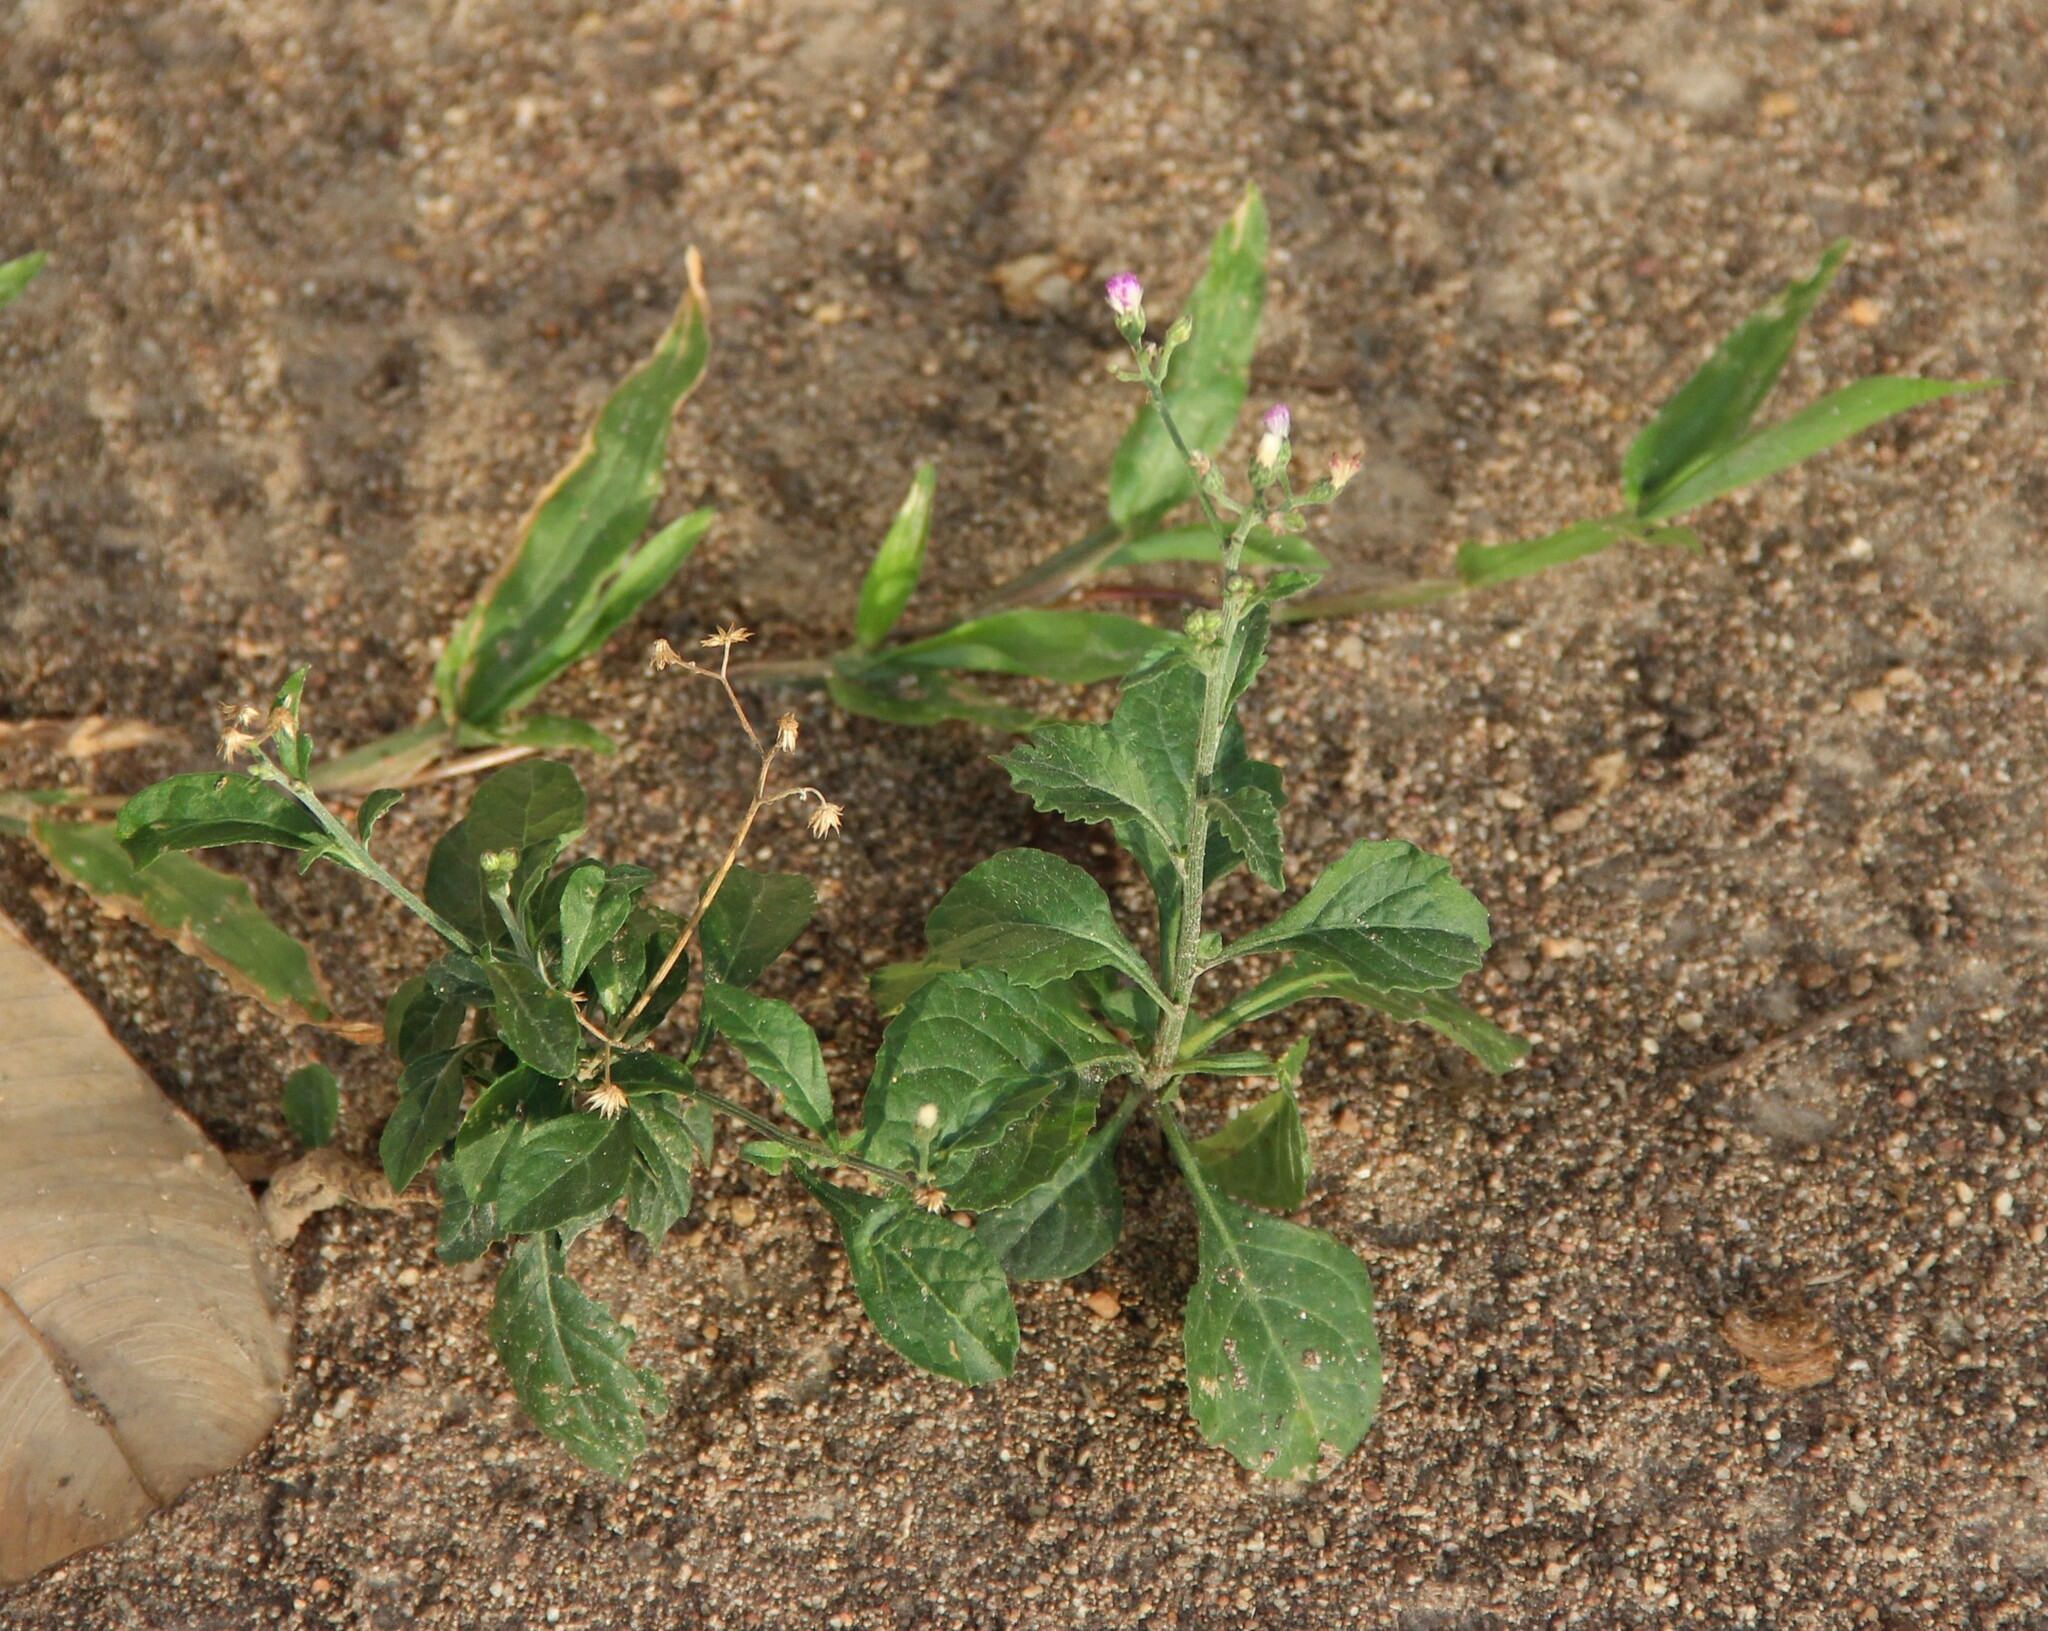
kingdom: Plantae
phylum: Tracheophyta
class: Magnoliopsida
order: Asterales
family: Asteraceae
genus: Cyanthillium
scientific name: Cyanthillium cinereum
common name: Little ironweed
